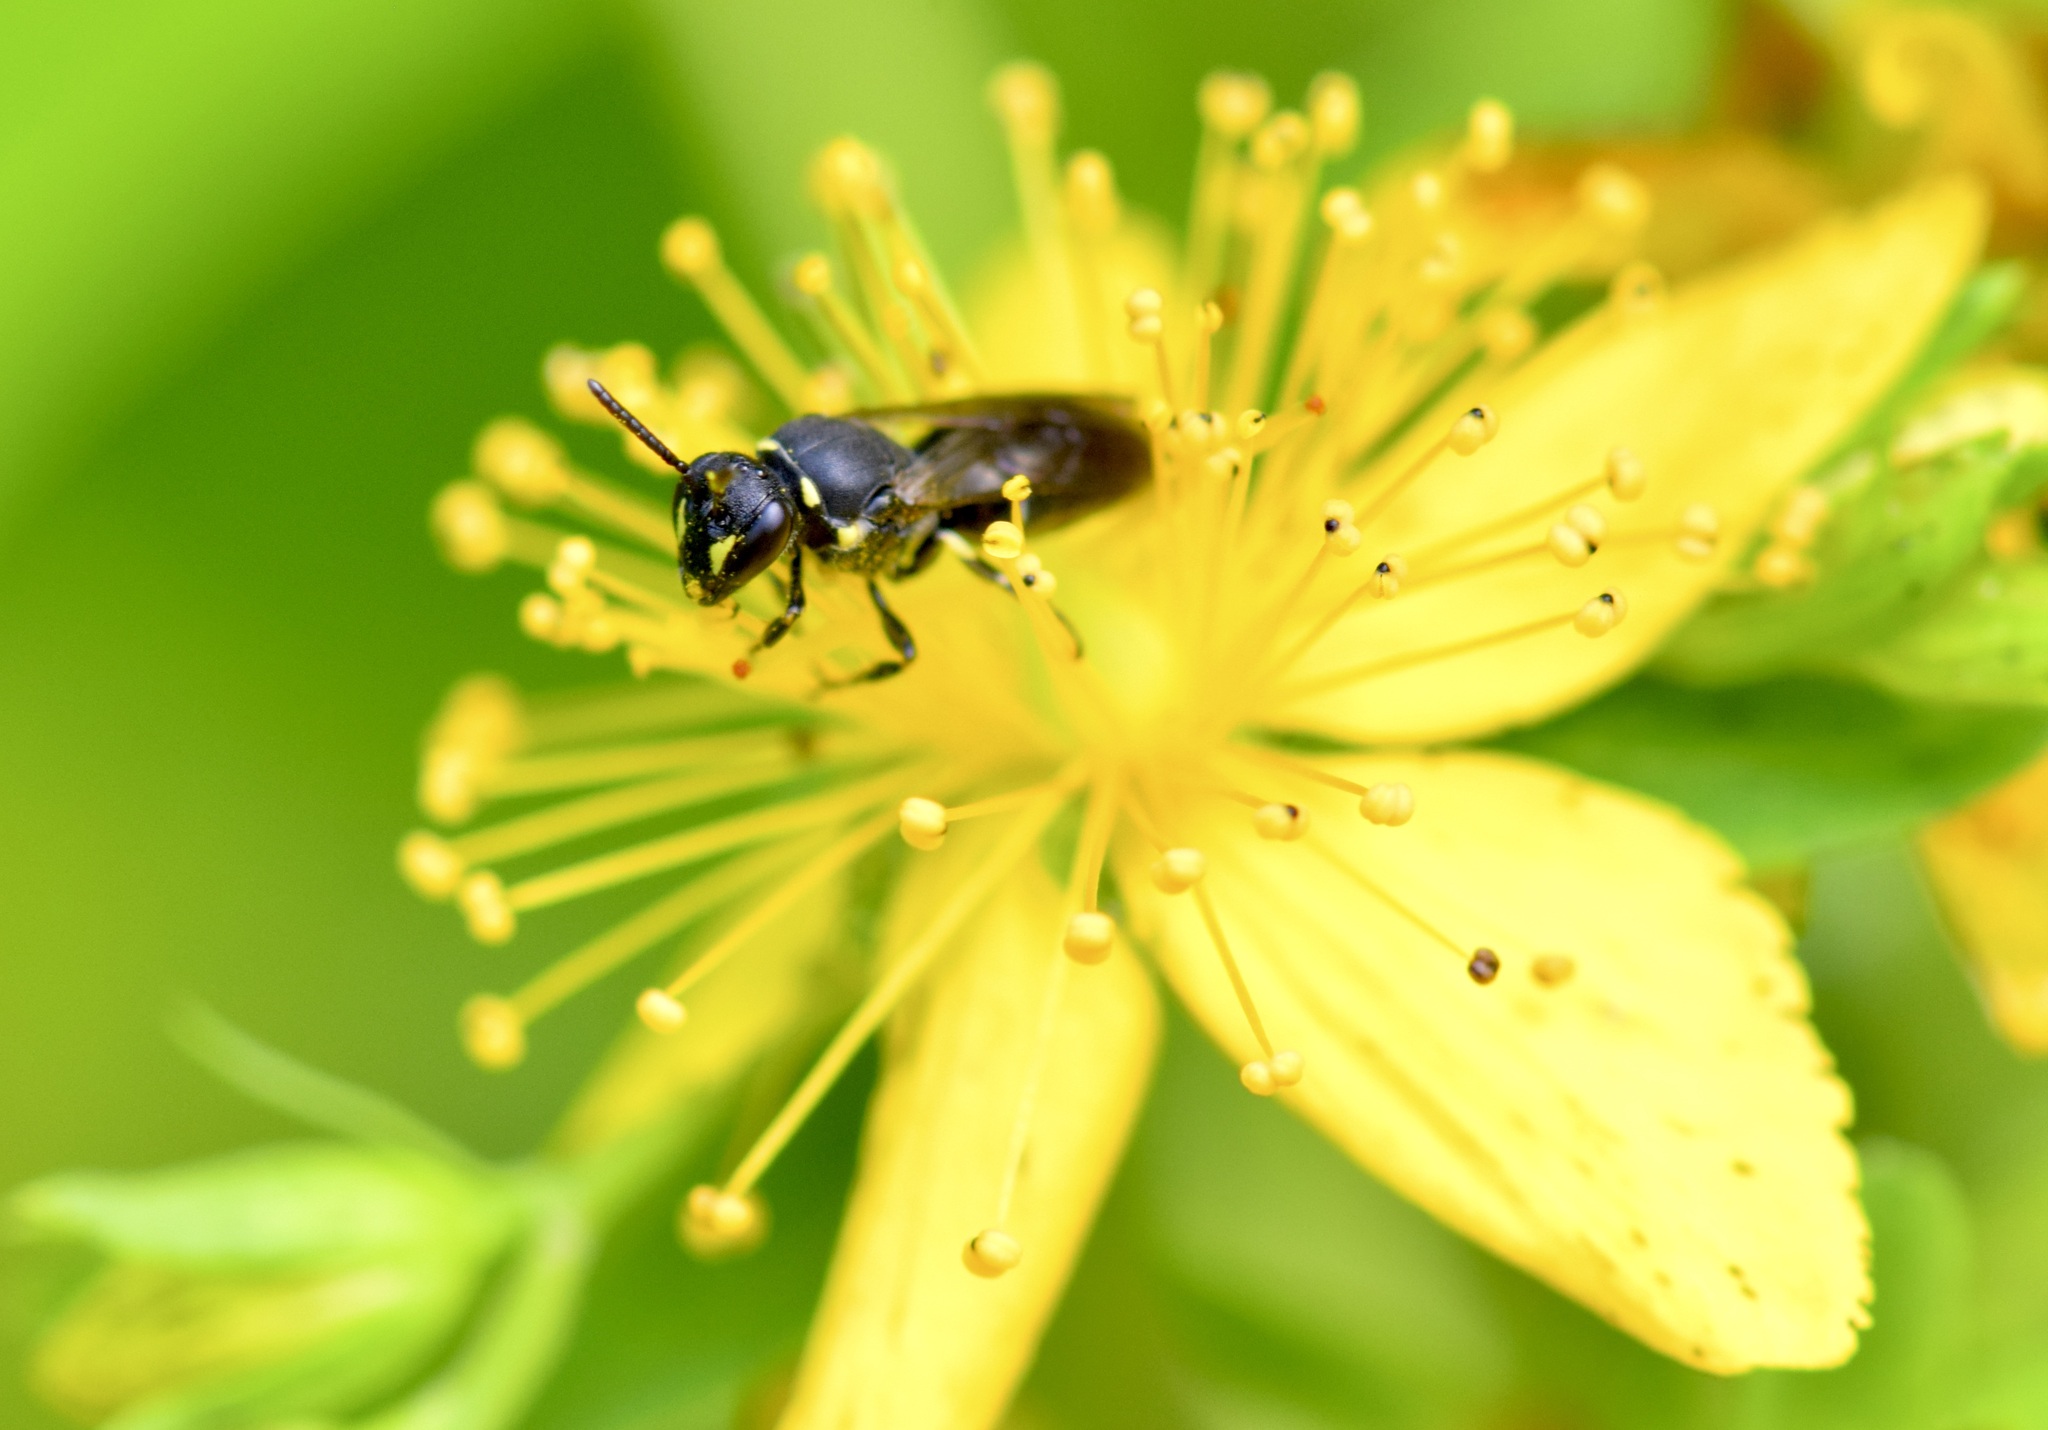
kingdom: Animalia
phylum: Arthropoda
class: Insecta
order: Hymenoptera
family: Colletidae
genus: Hylaeus
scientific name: Hylaeus modestus
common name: Yellow-faced bee
